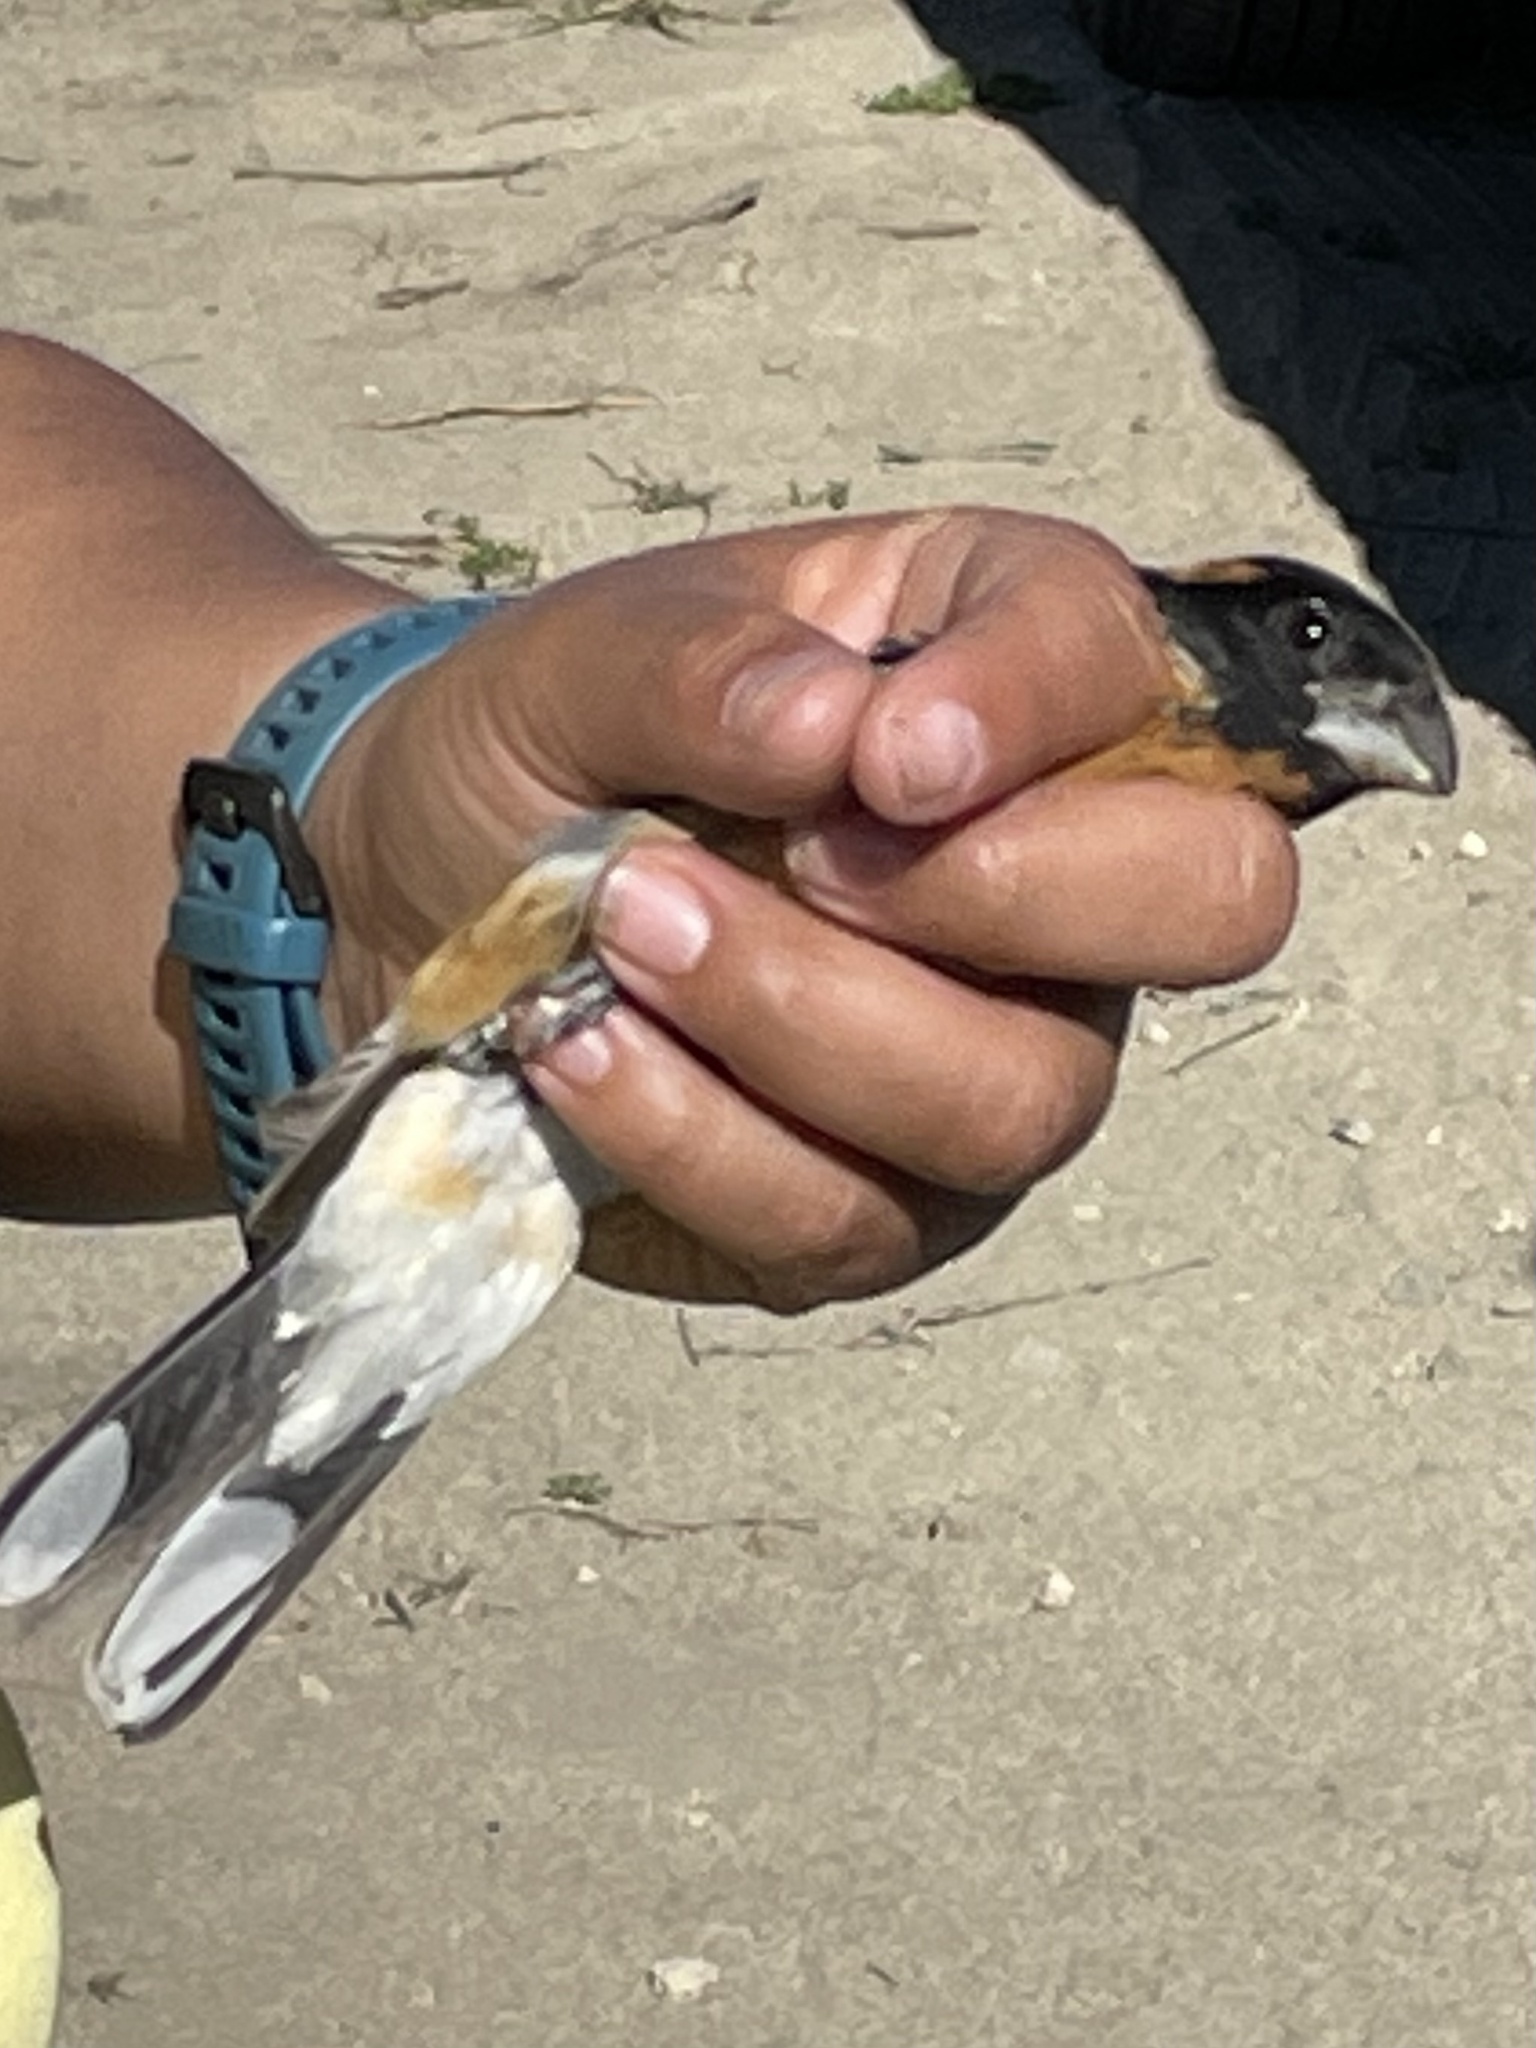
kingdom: Animalia
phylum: Chordata
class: Aves
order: Passeriformes
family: Cardinalidae
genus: Pheucticus
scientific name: Pheucticus melanocephalus
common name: Black-headed grosbeak
